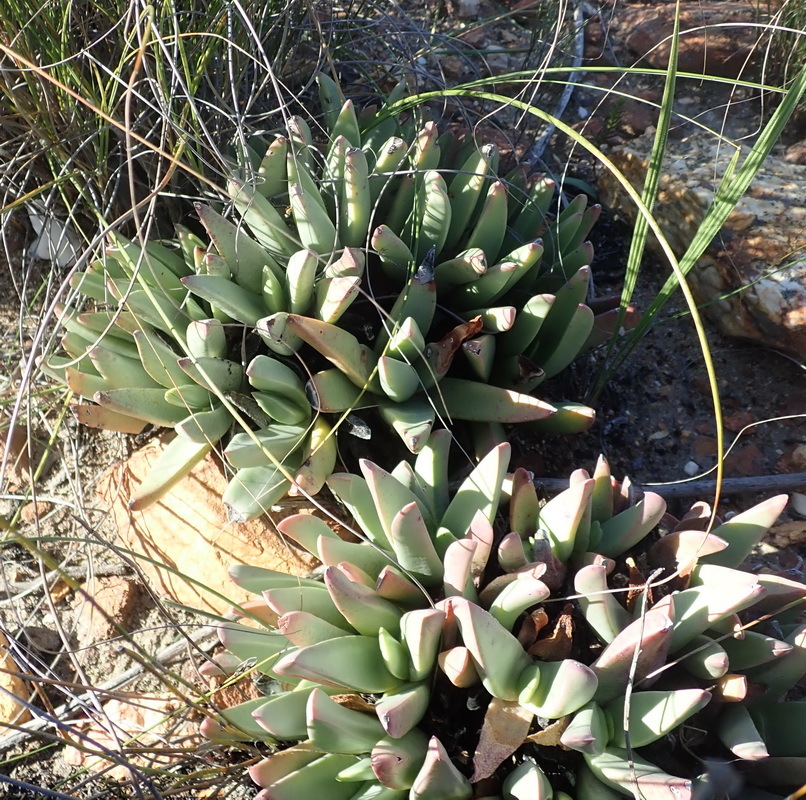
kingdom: Plantae
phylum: Tracheophyta
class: Magnoliopsida
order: Caryophyllales
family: Aizoaceae
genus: Machairophyllum
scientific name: Machairophyllum albidum
